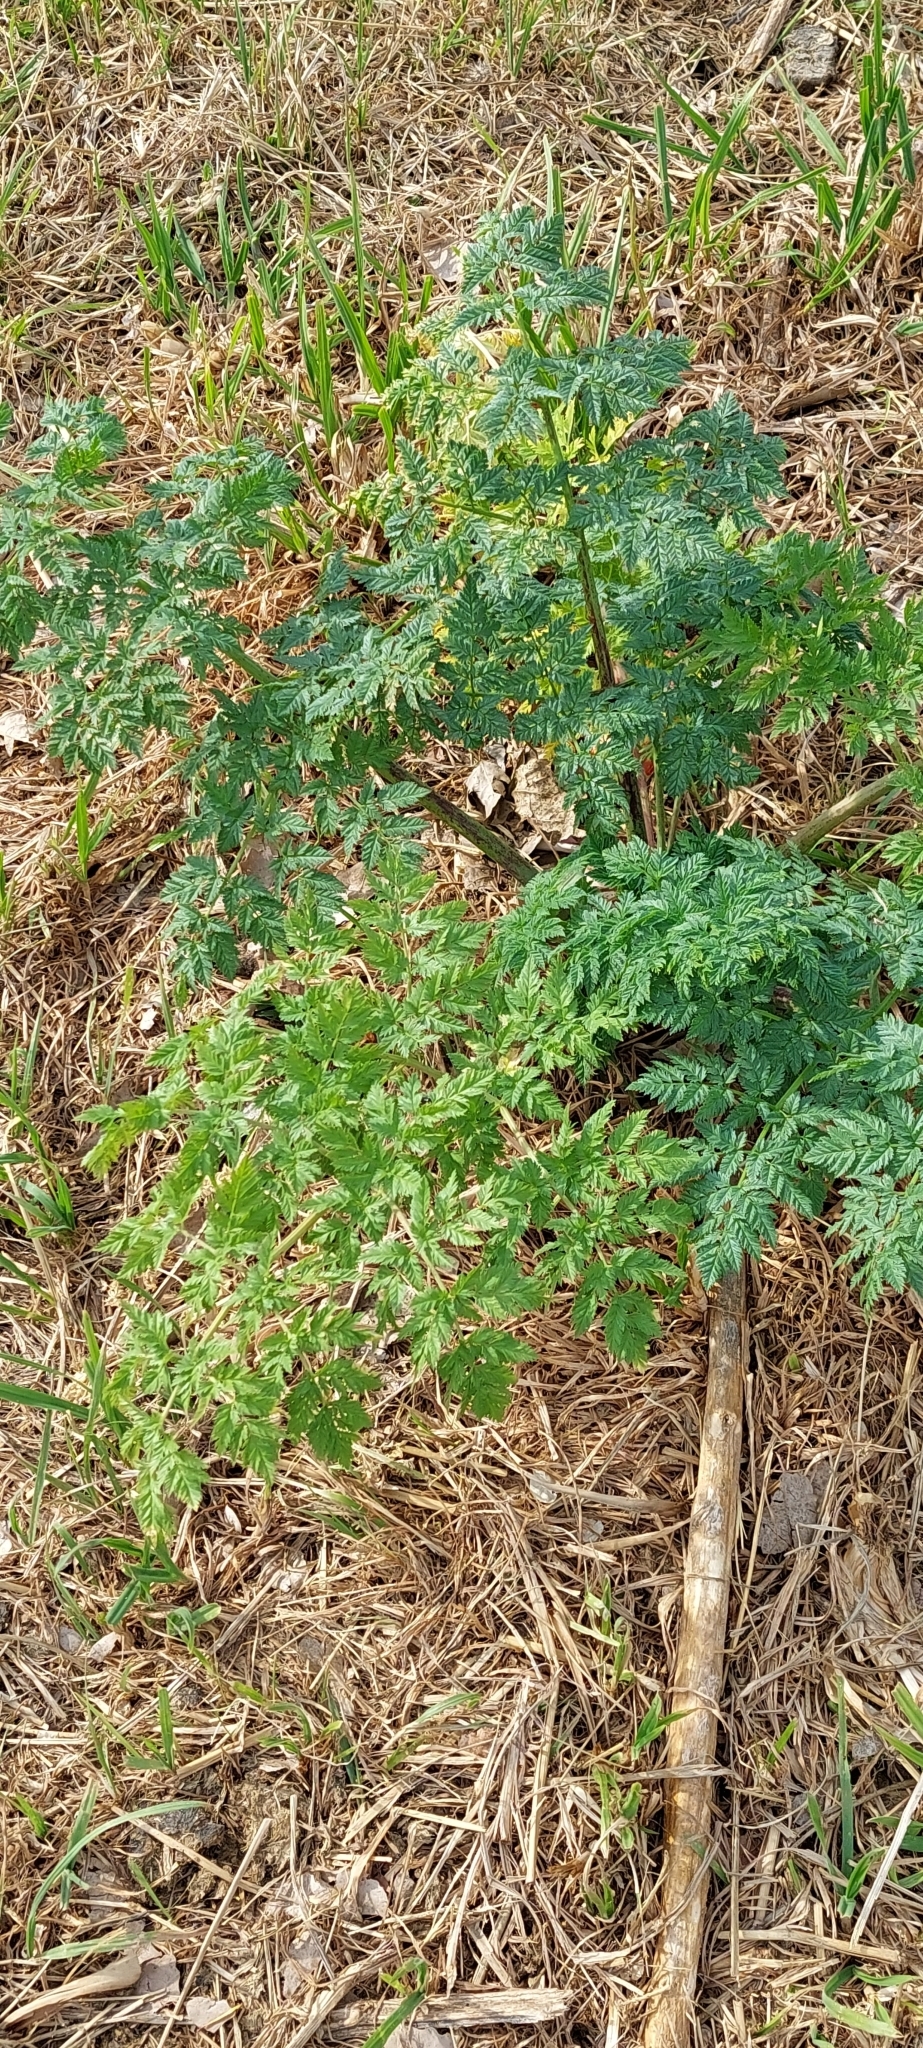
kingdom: Plantae
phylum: Tracheophyta
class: Magnoliopsida
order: Apiales
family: Apiaceae
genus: Conium
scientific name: Conium maculatum
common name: Hemlock
